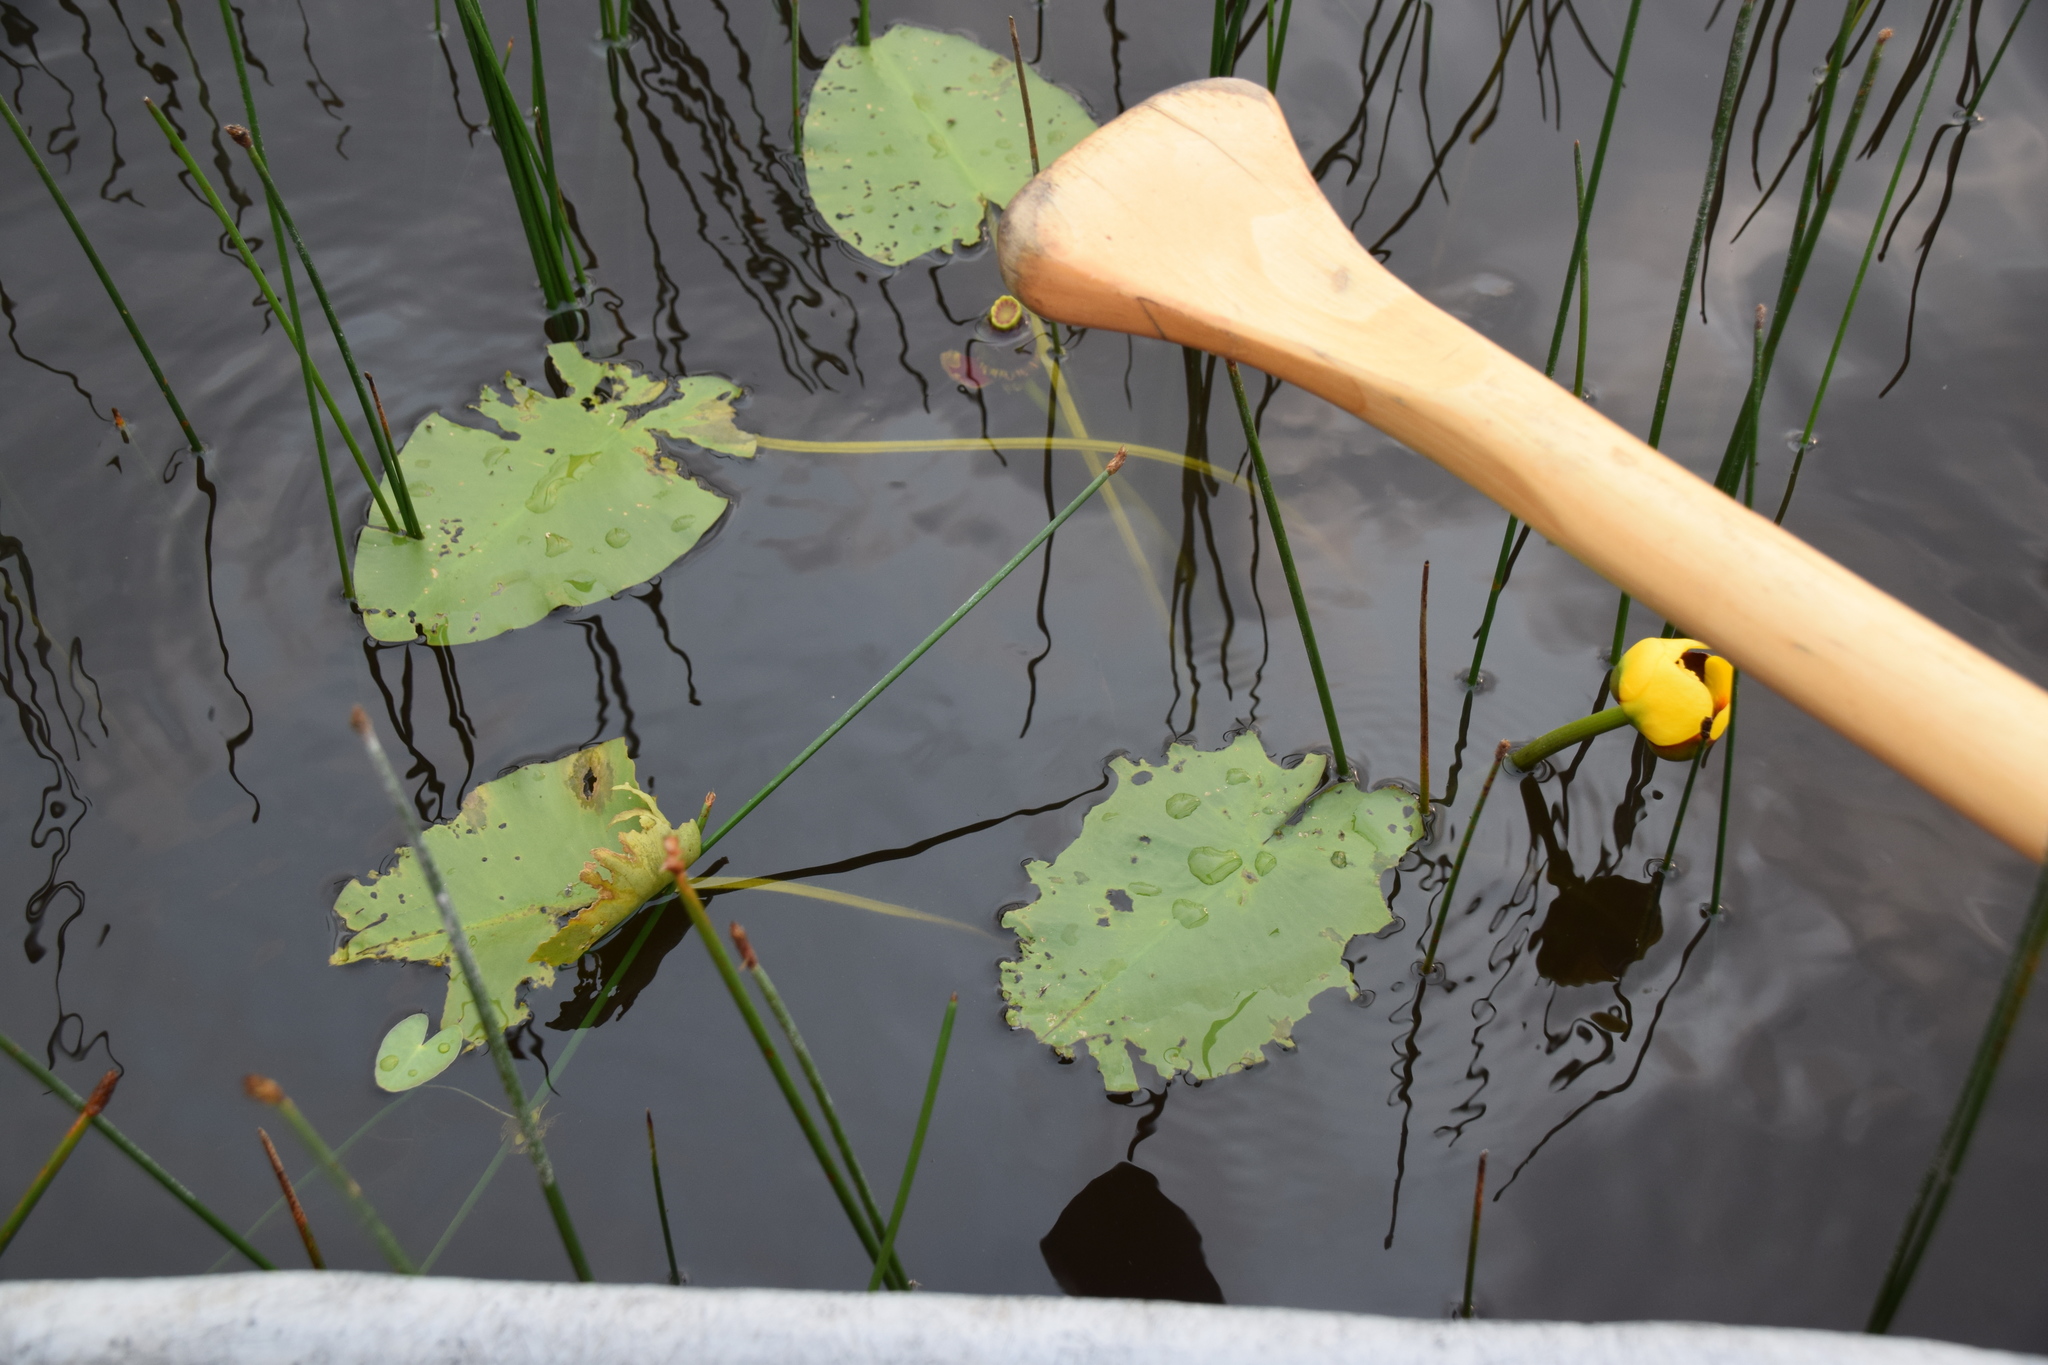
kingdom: Plantae
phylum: Tracheophyta
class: Magnoliopsida
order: Nymphaeales
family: Nymphaeaceae
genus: Nuphar
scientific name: Nuphar variegata
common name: Beaver-root
